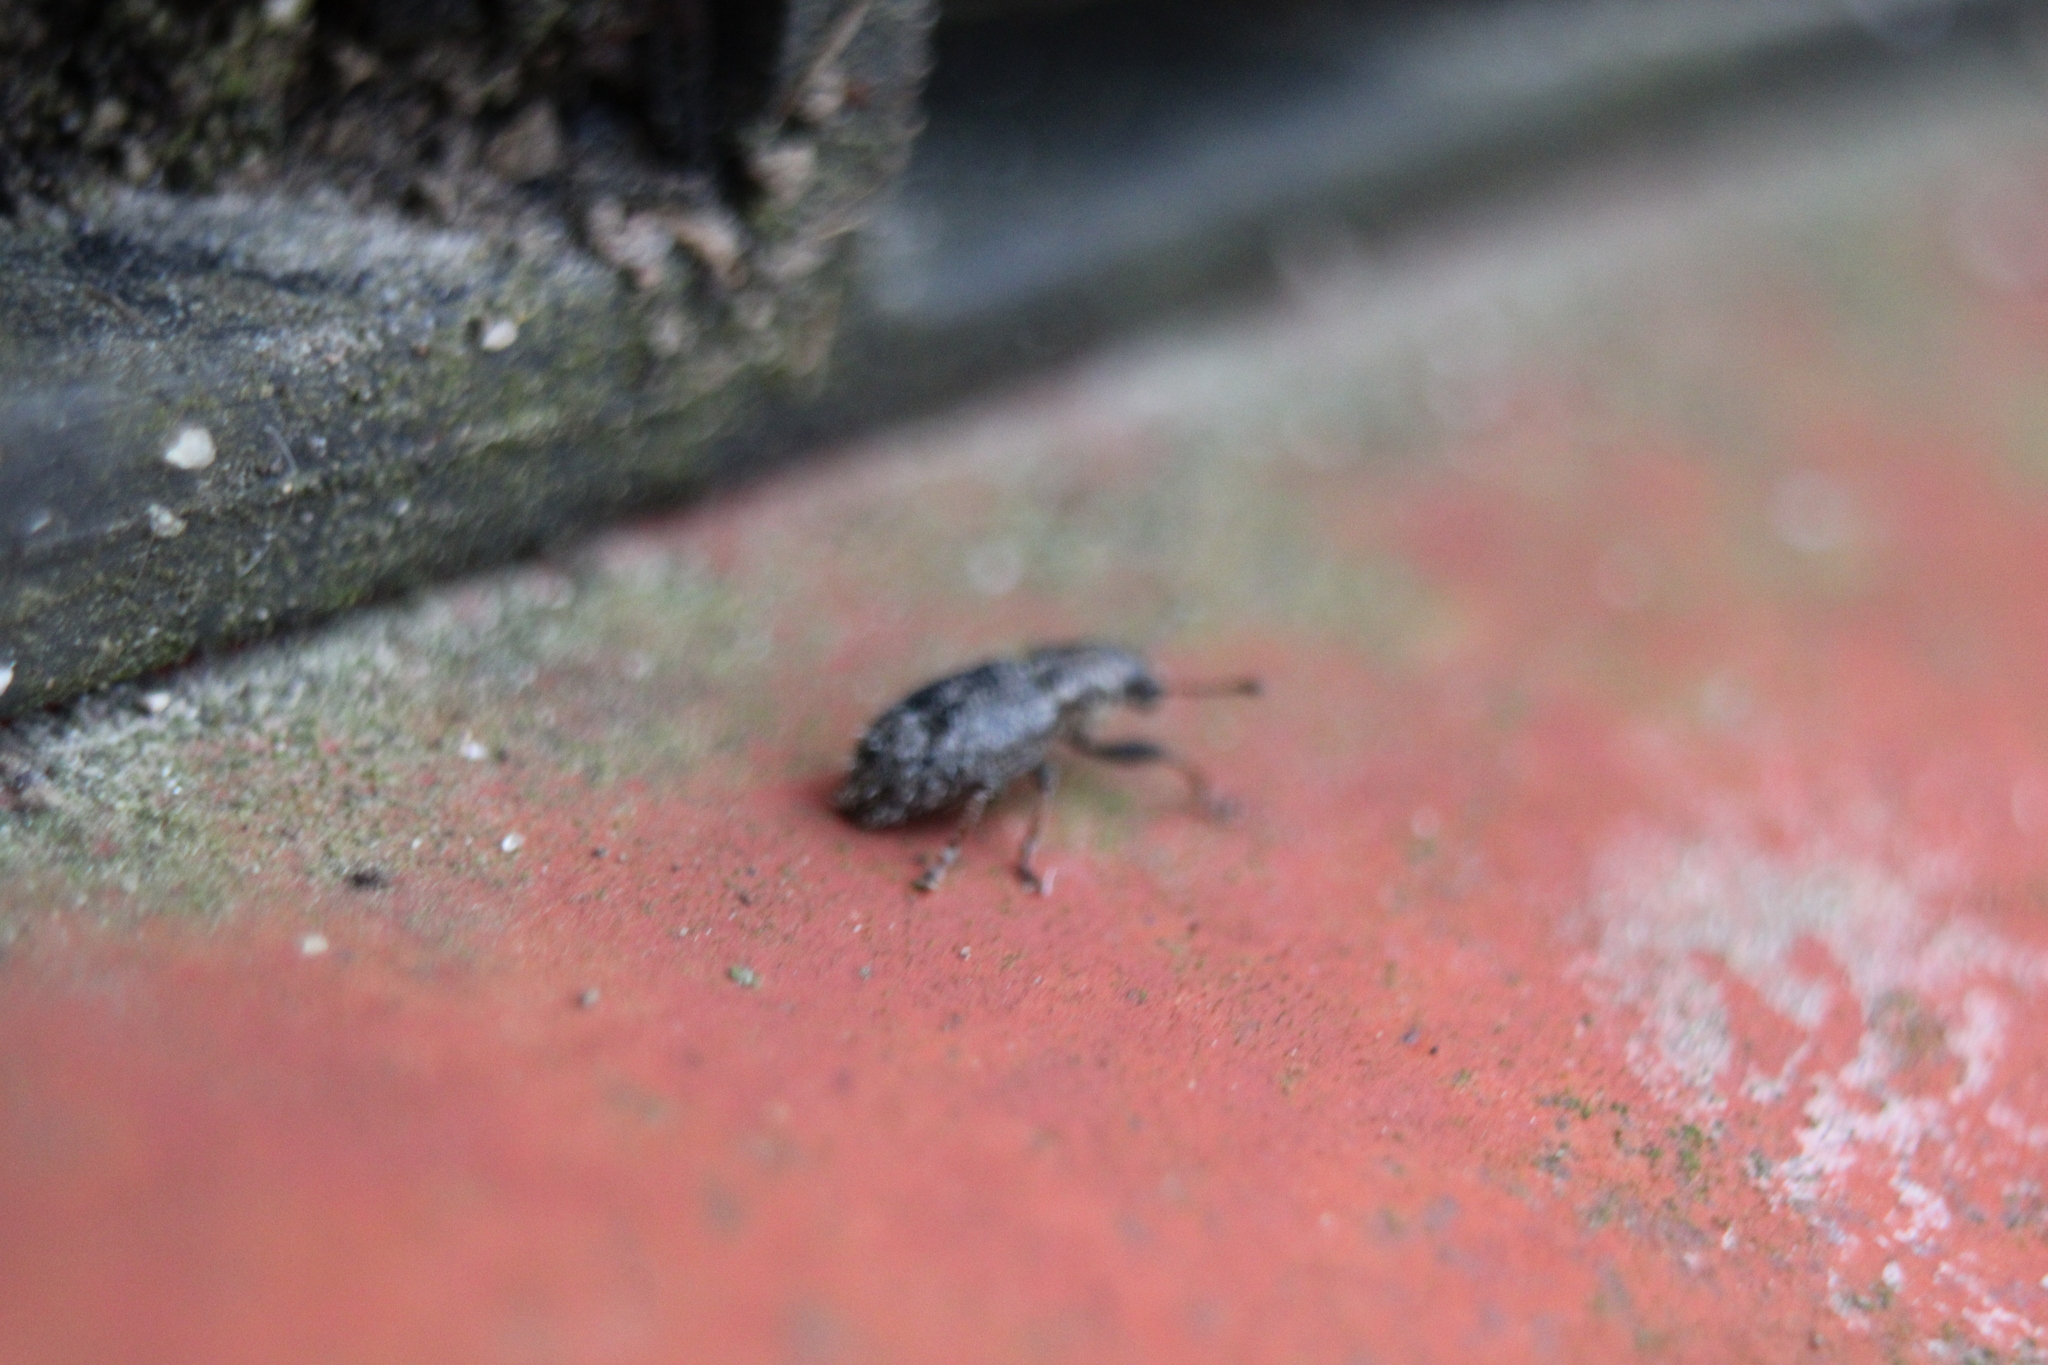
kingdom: Animalia
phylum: Arthropoda
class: Insecta
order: Coleoptera
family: Curculionidae
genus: Sitona
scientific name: Sitona hispidulus
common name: Clover weevil
